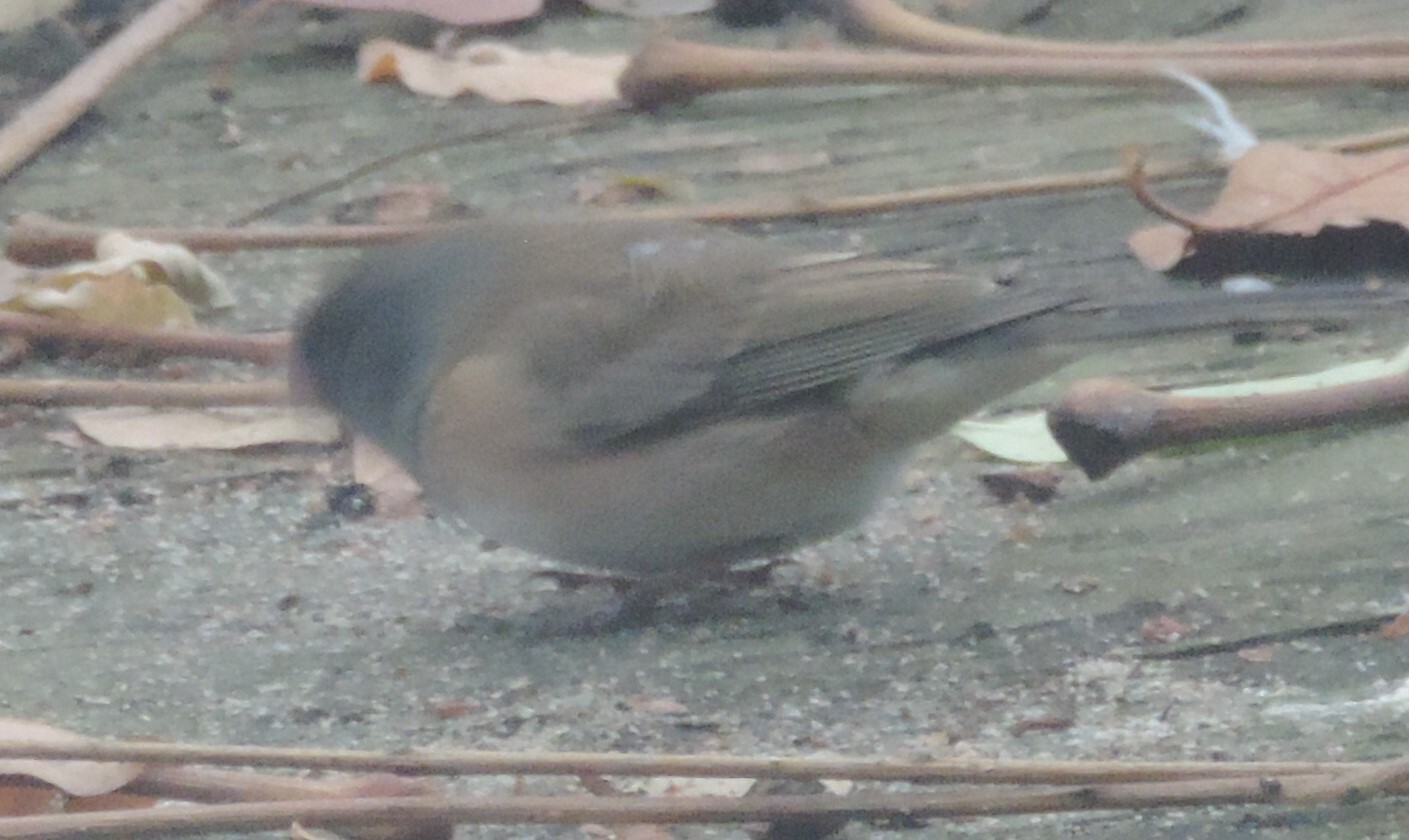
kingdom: Animalia
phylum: Chordata
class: Aves
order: Passeriformes
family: Passerellidae
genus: Junco
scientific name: Junco hyemalis
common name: Dark-eyed junco
